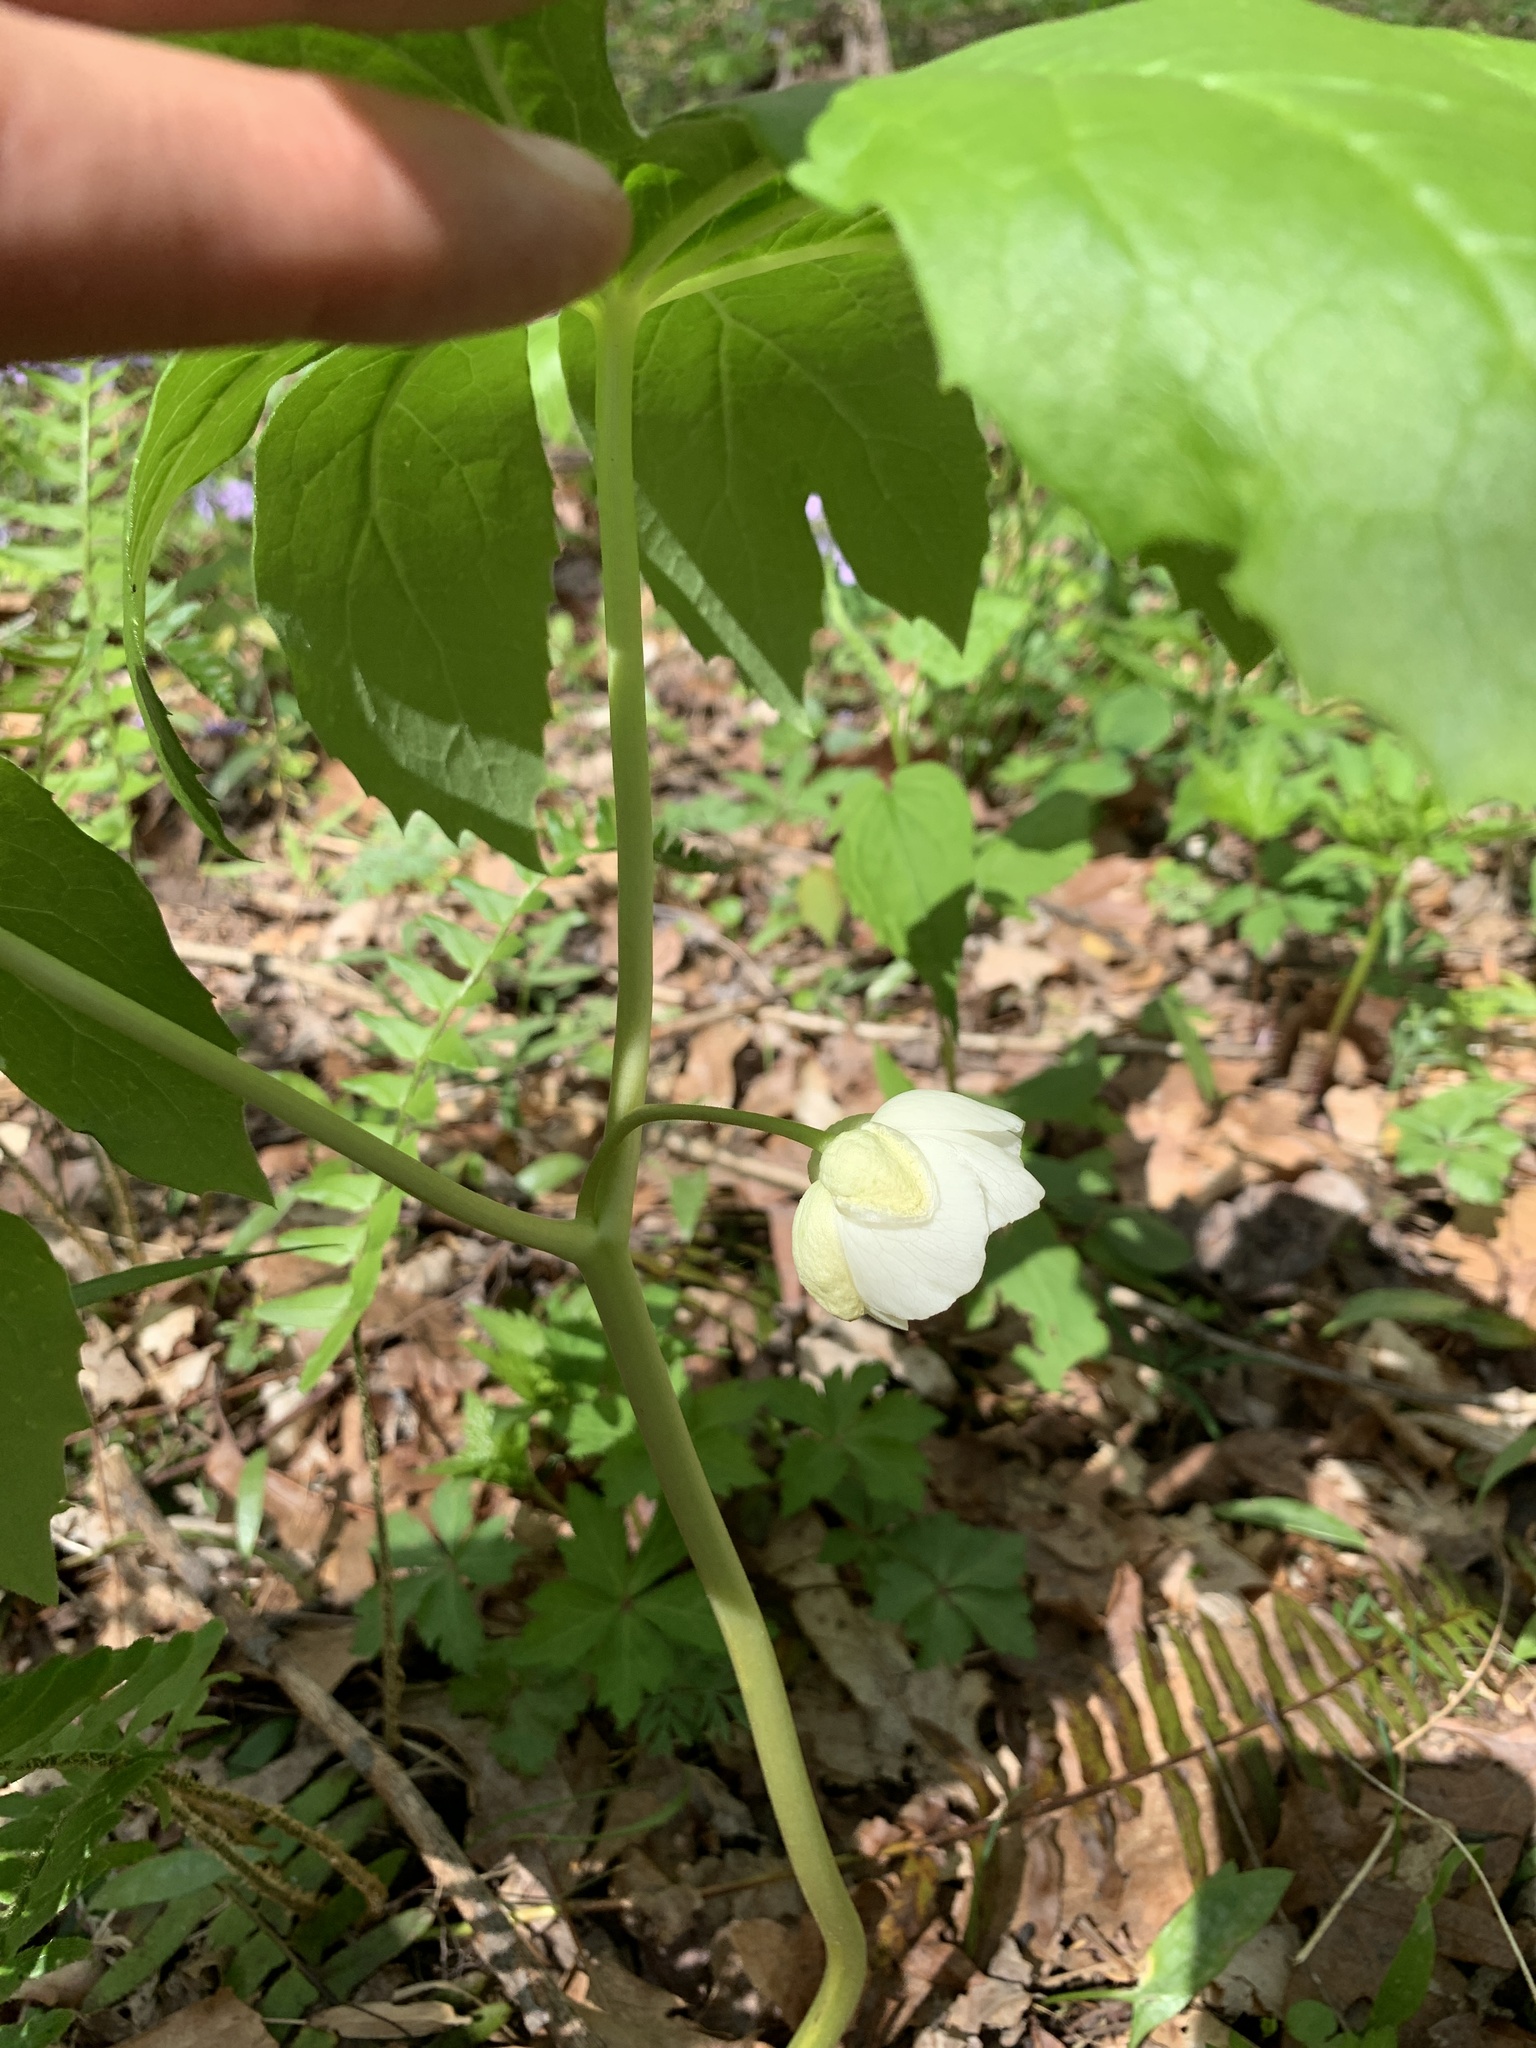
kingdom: Plantae
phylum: Tracheophyta
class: Magnoliopsida
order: Ranunculales
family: Berberidaceae
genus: Podophyllum
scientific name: Podophyllum peltatum
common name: Wild mandrake
